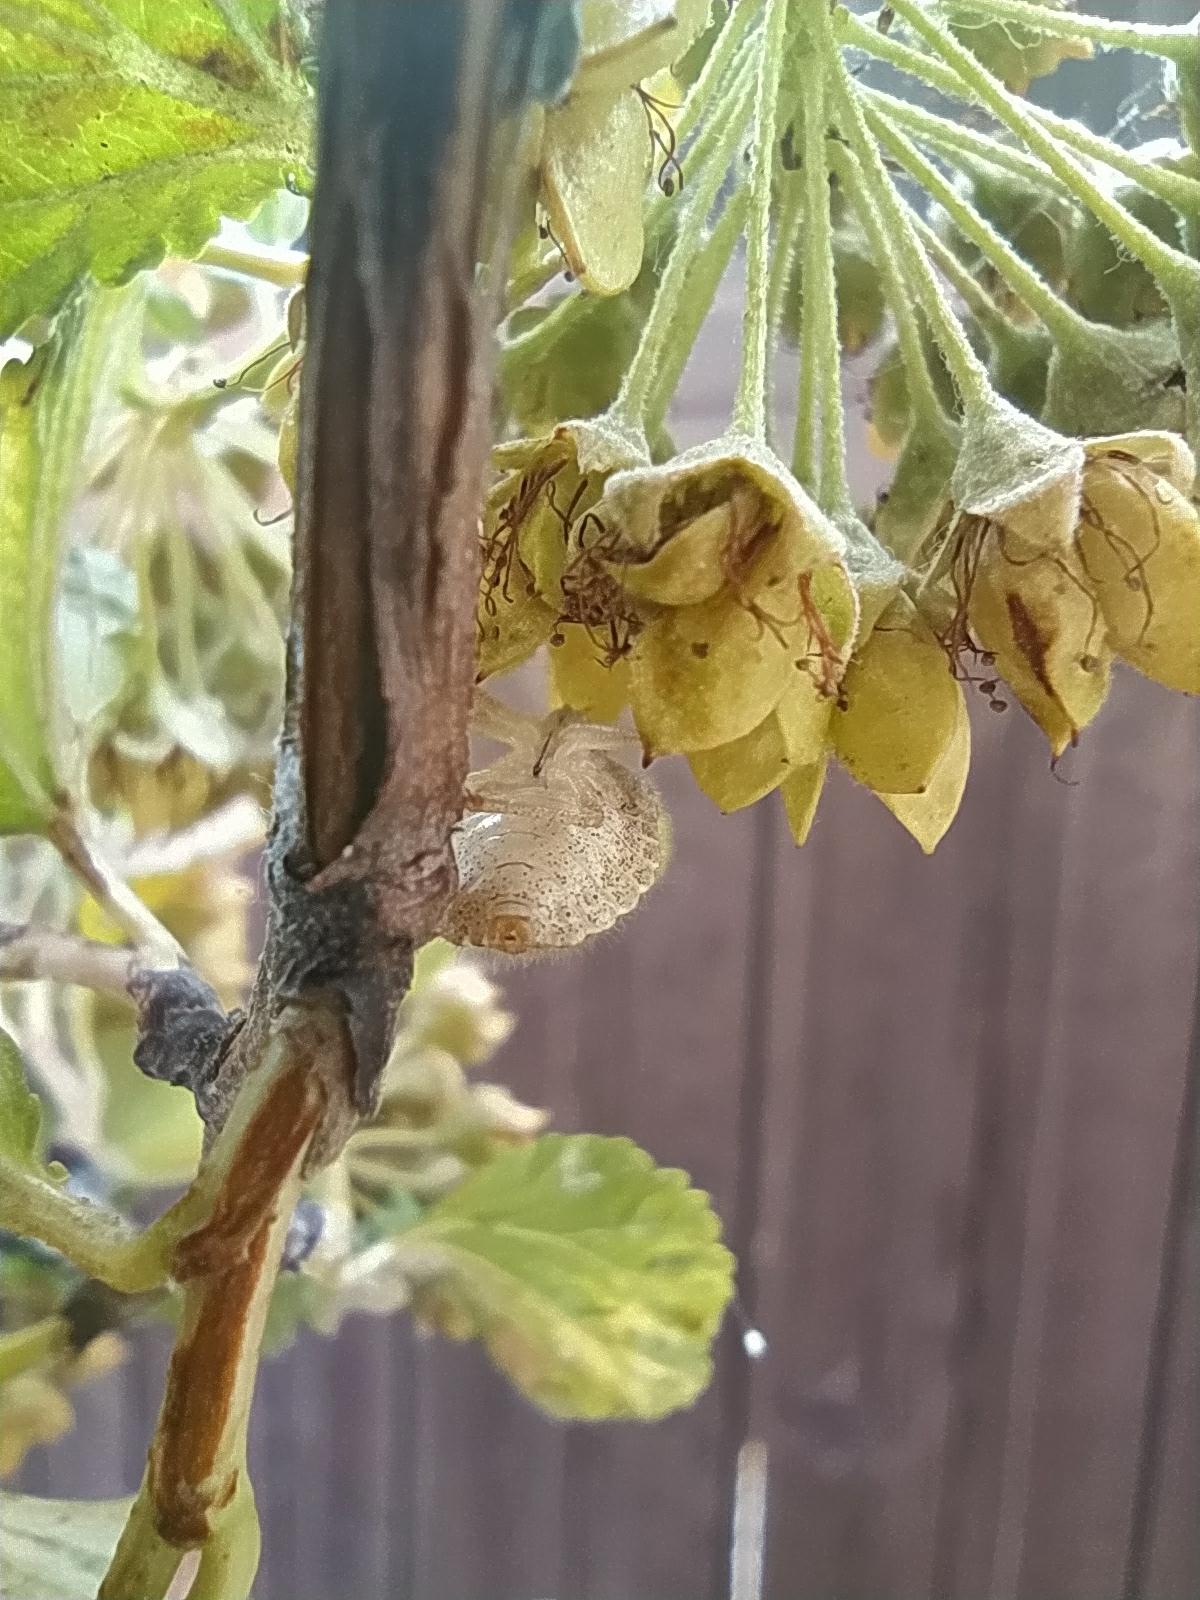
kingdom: Animalia
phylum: Arthropoda
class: Insecta
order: Hemiptera
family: Pentatomidae
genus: Dolycoris
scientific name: Dolycoris baccarum
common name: Sloe bug
